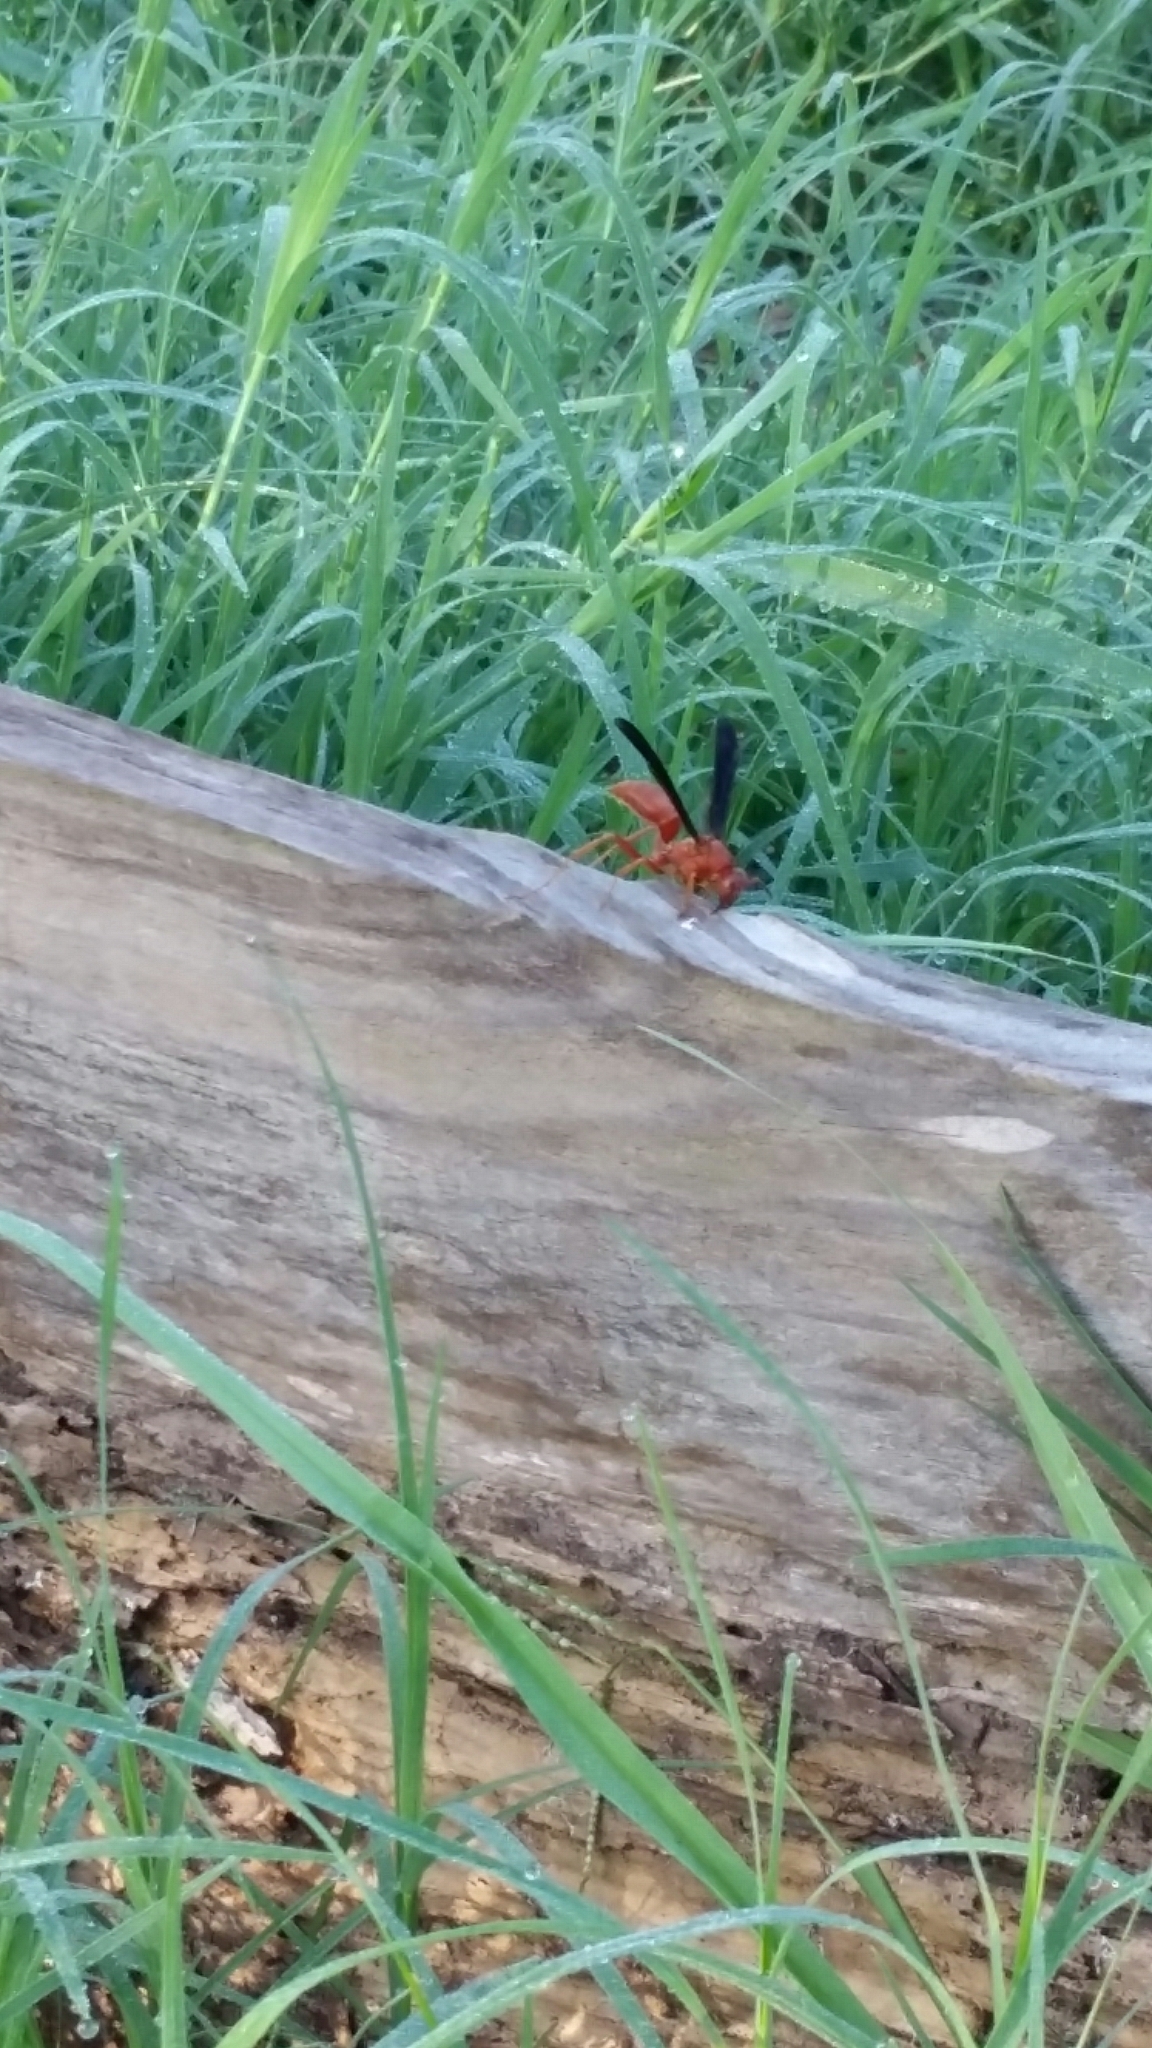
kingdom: Animalia
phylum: Arthropoda
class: Insecta
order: Hymenoptera
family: Eumenidae
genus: Polistes
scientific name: Polistes
